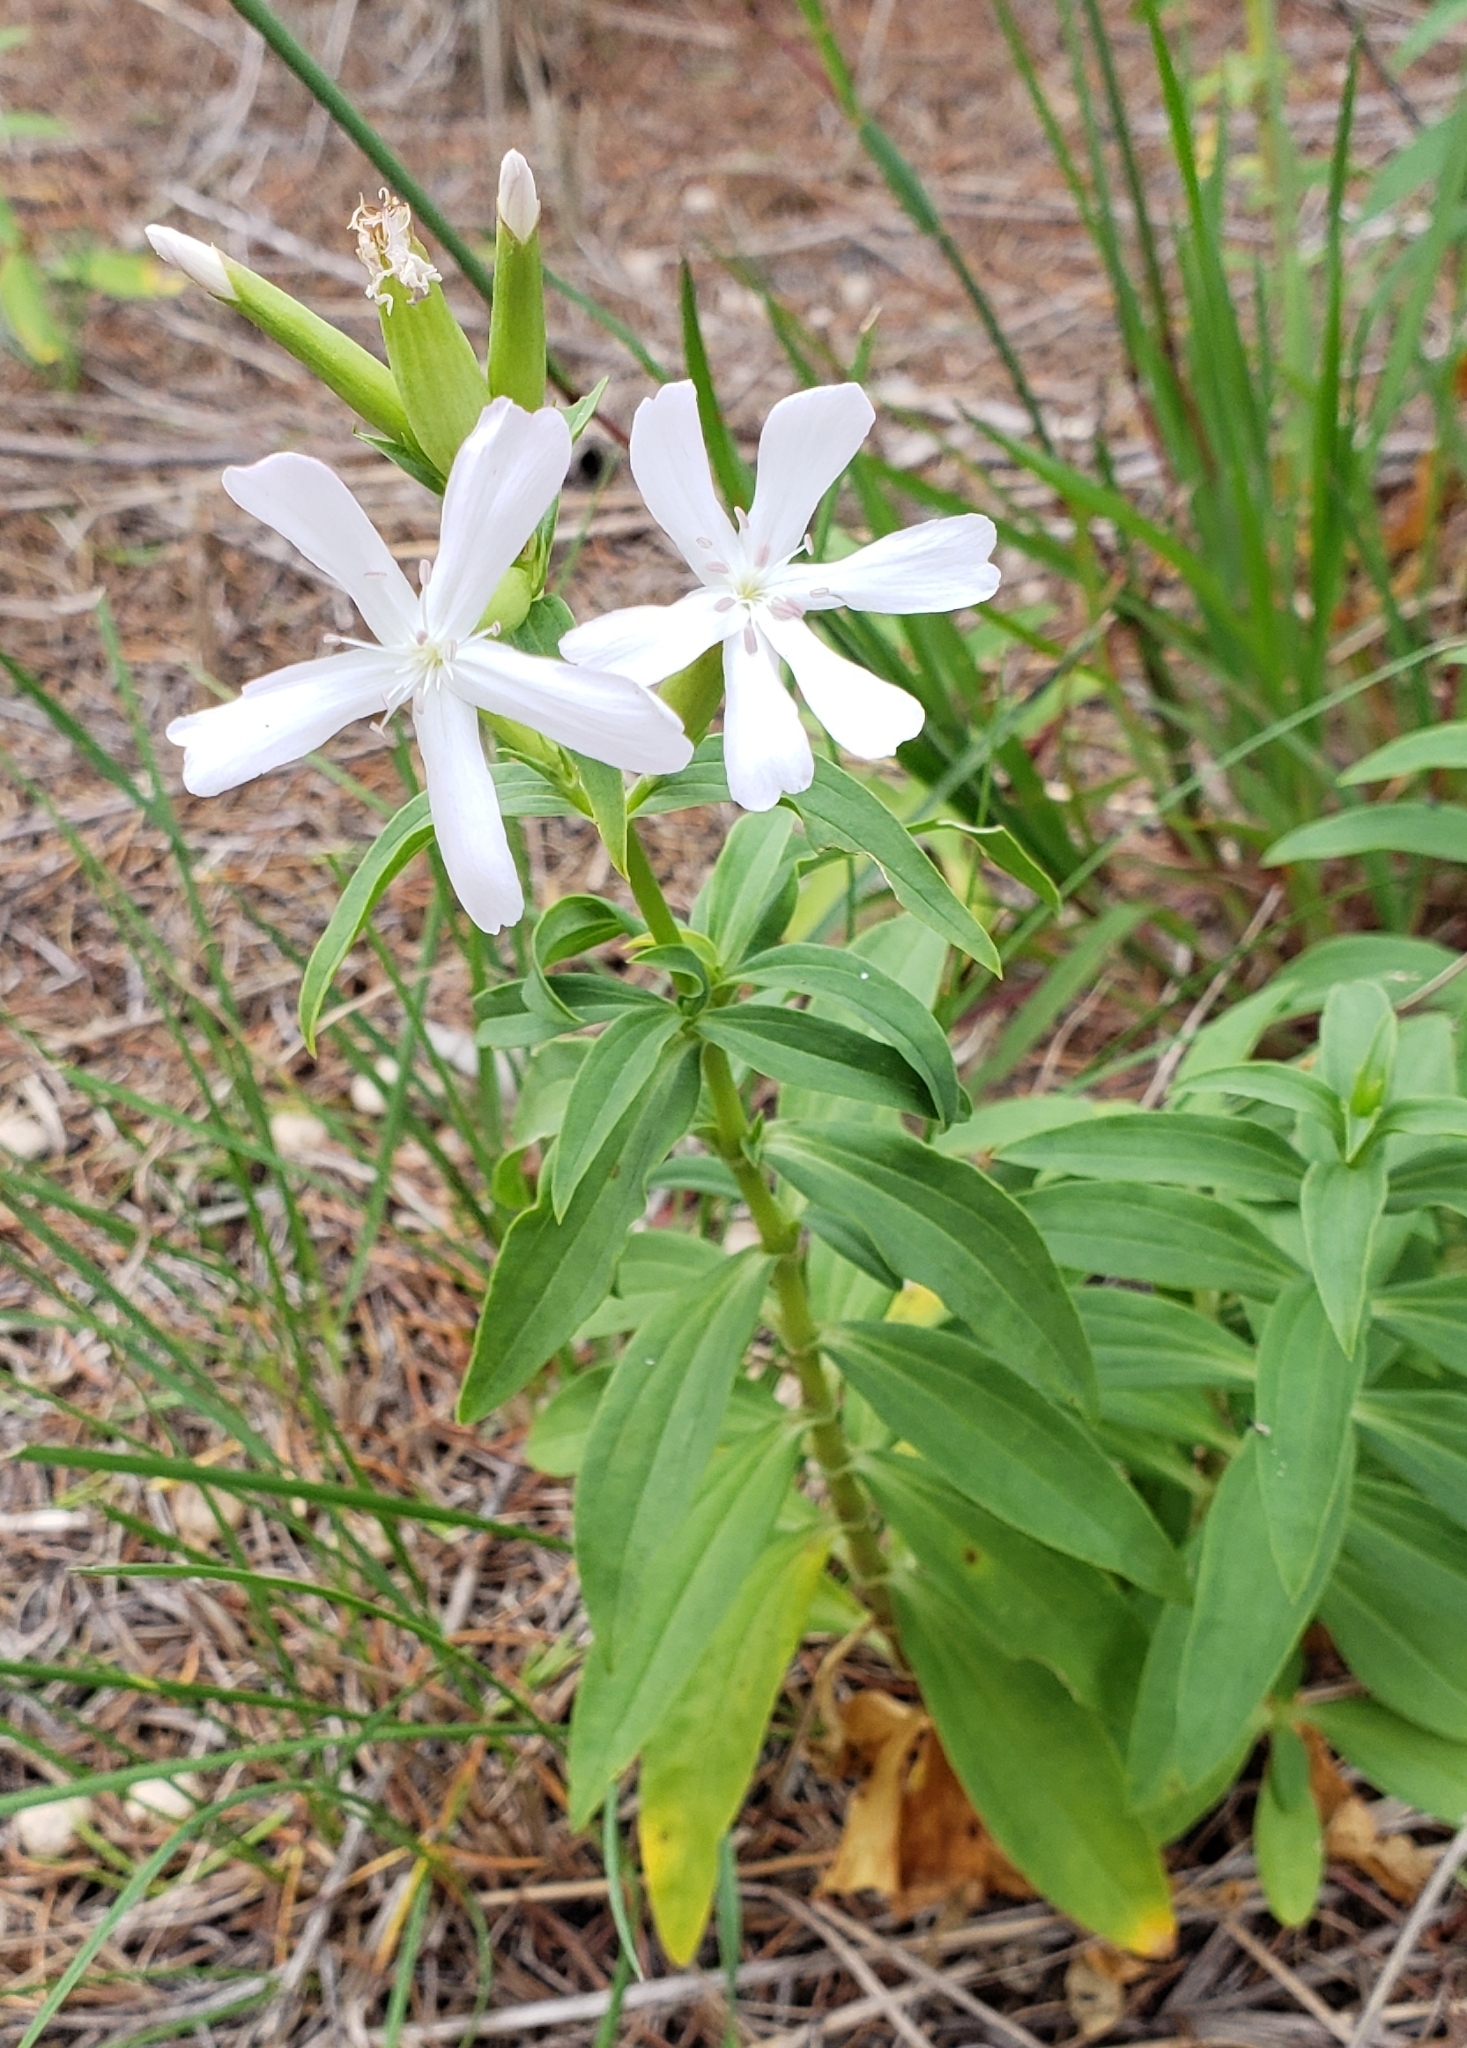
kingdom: Plantae
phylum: Tracheophyta
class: Magnoliopsida
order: Caryophyllales
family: Caryophyllaceae
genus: Saponaria
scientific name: Saponaria officinalis
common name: Soapwort
